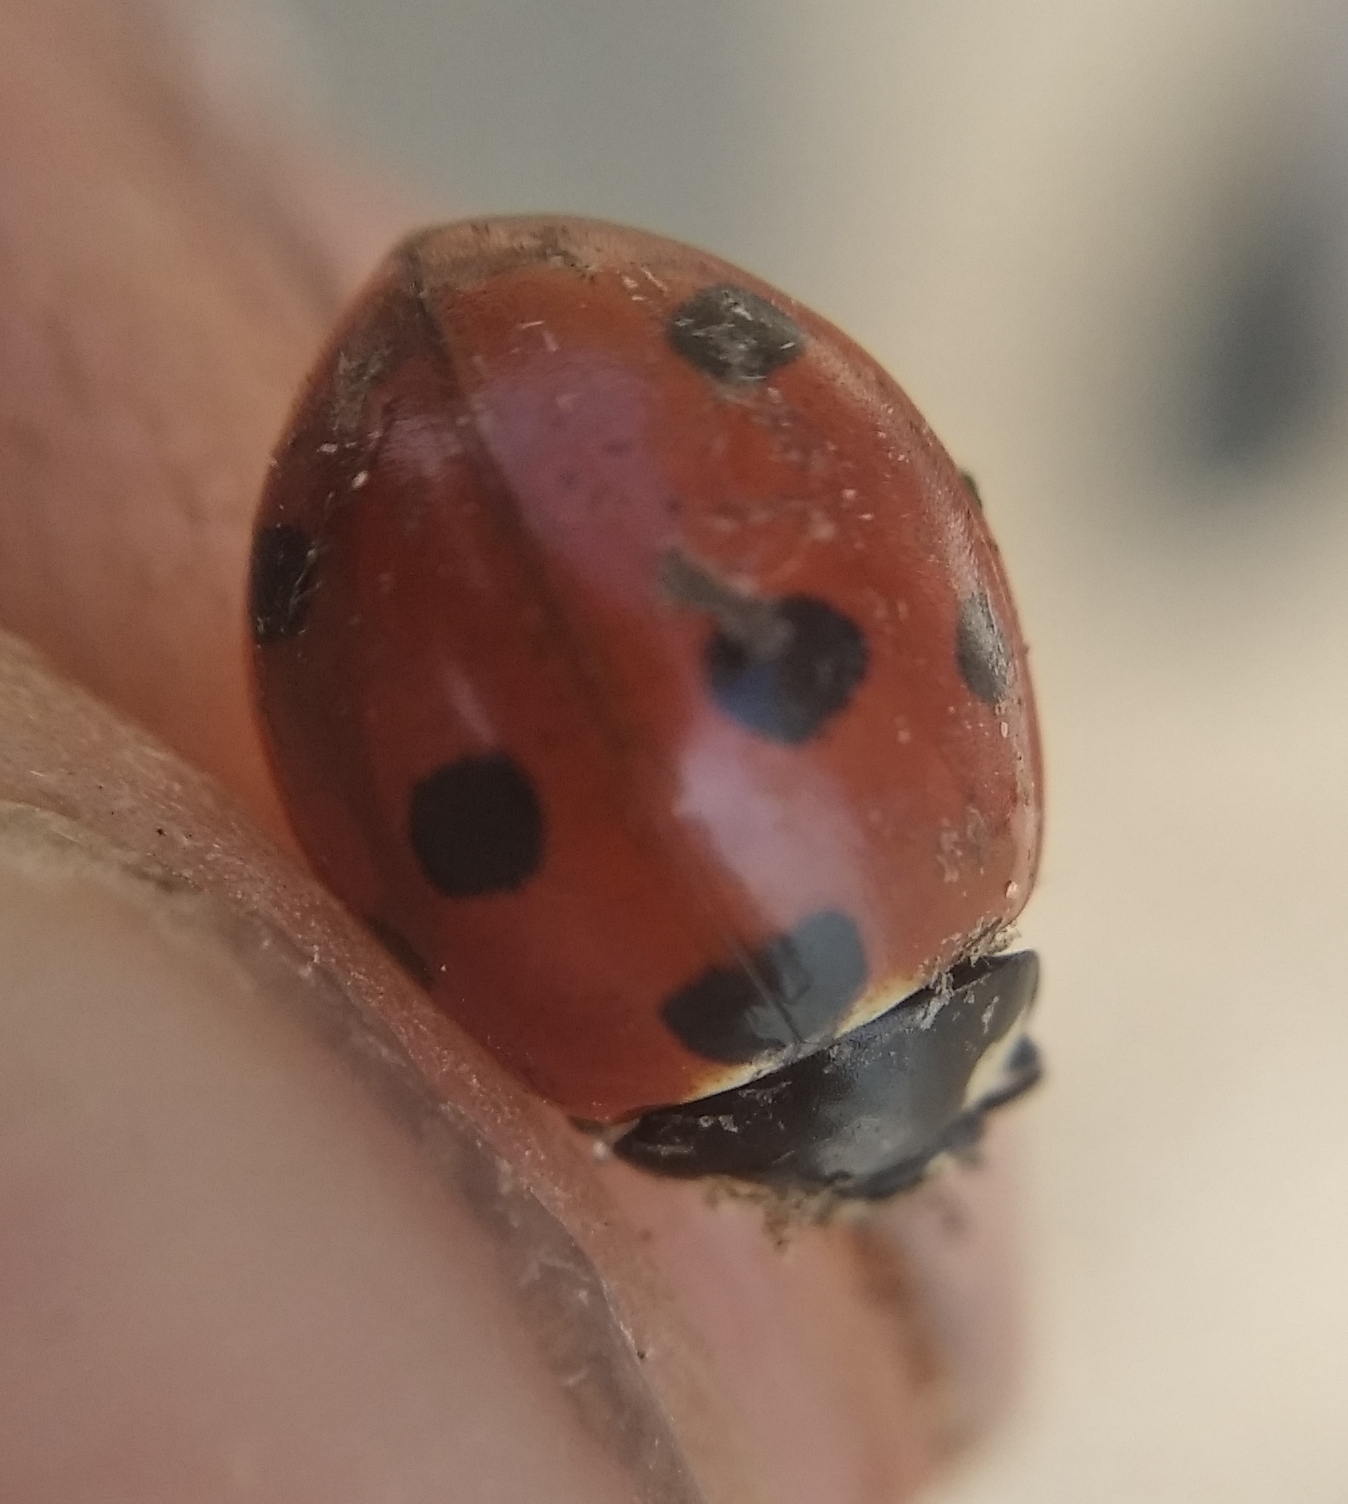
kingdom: Animalia
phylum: Arthropoda
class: Insecta
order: Coleoptera
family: Coccinellidae
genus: Coccinella
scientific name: Coccinella septempunctata
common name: Sevenspotted lady beetle
